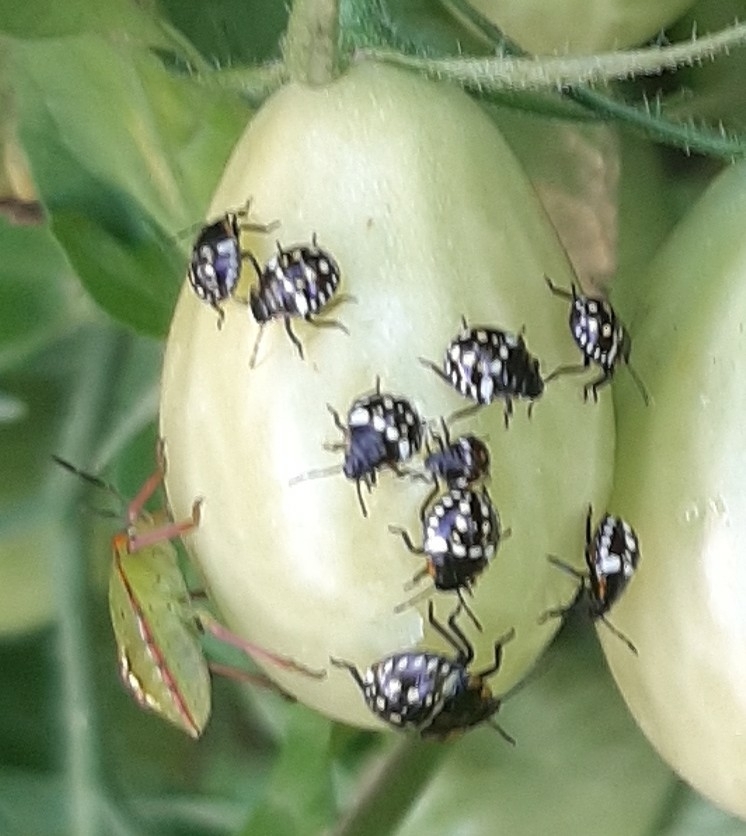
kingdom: Animalia
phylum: Arthropoda
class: Insecta
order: Hemiptera
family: Pentatomidae
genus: Nezara
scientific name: Nezara viridula
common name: Southern green stink bug
